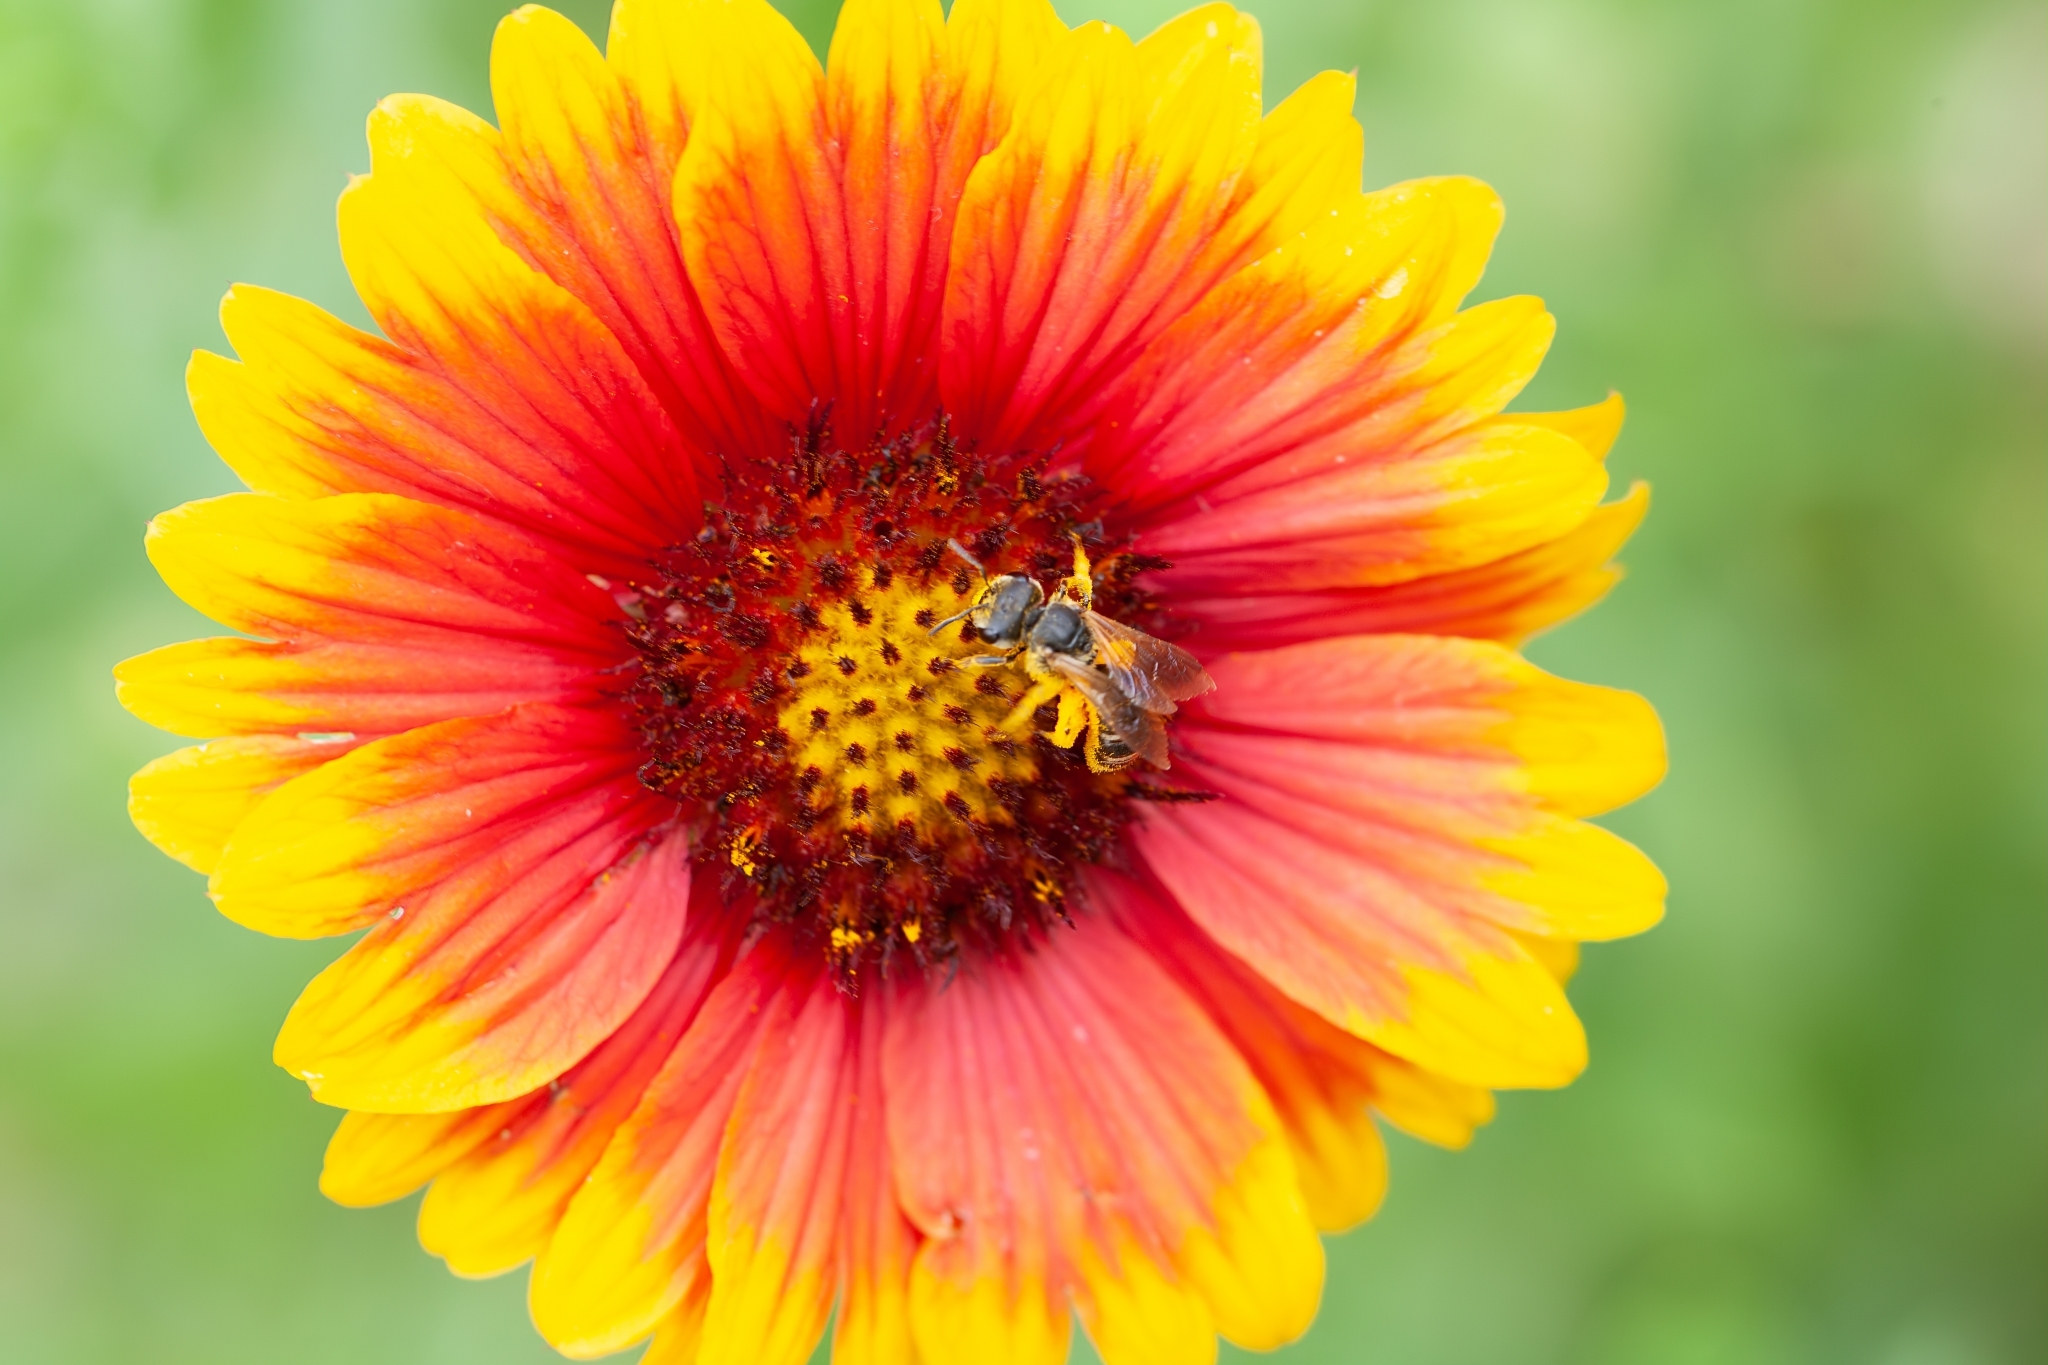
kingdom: Animalia
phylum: Arthropoda
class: Insecta
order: Hymenoptera
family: Halictidae
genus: Halictus
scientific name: Halictus poeyi
